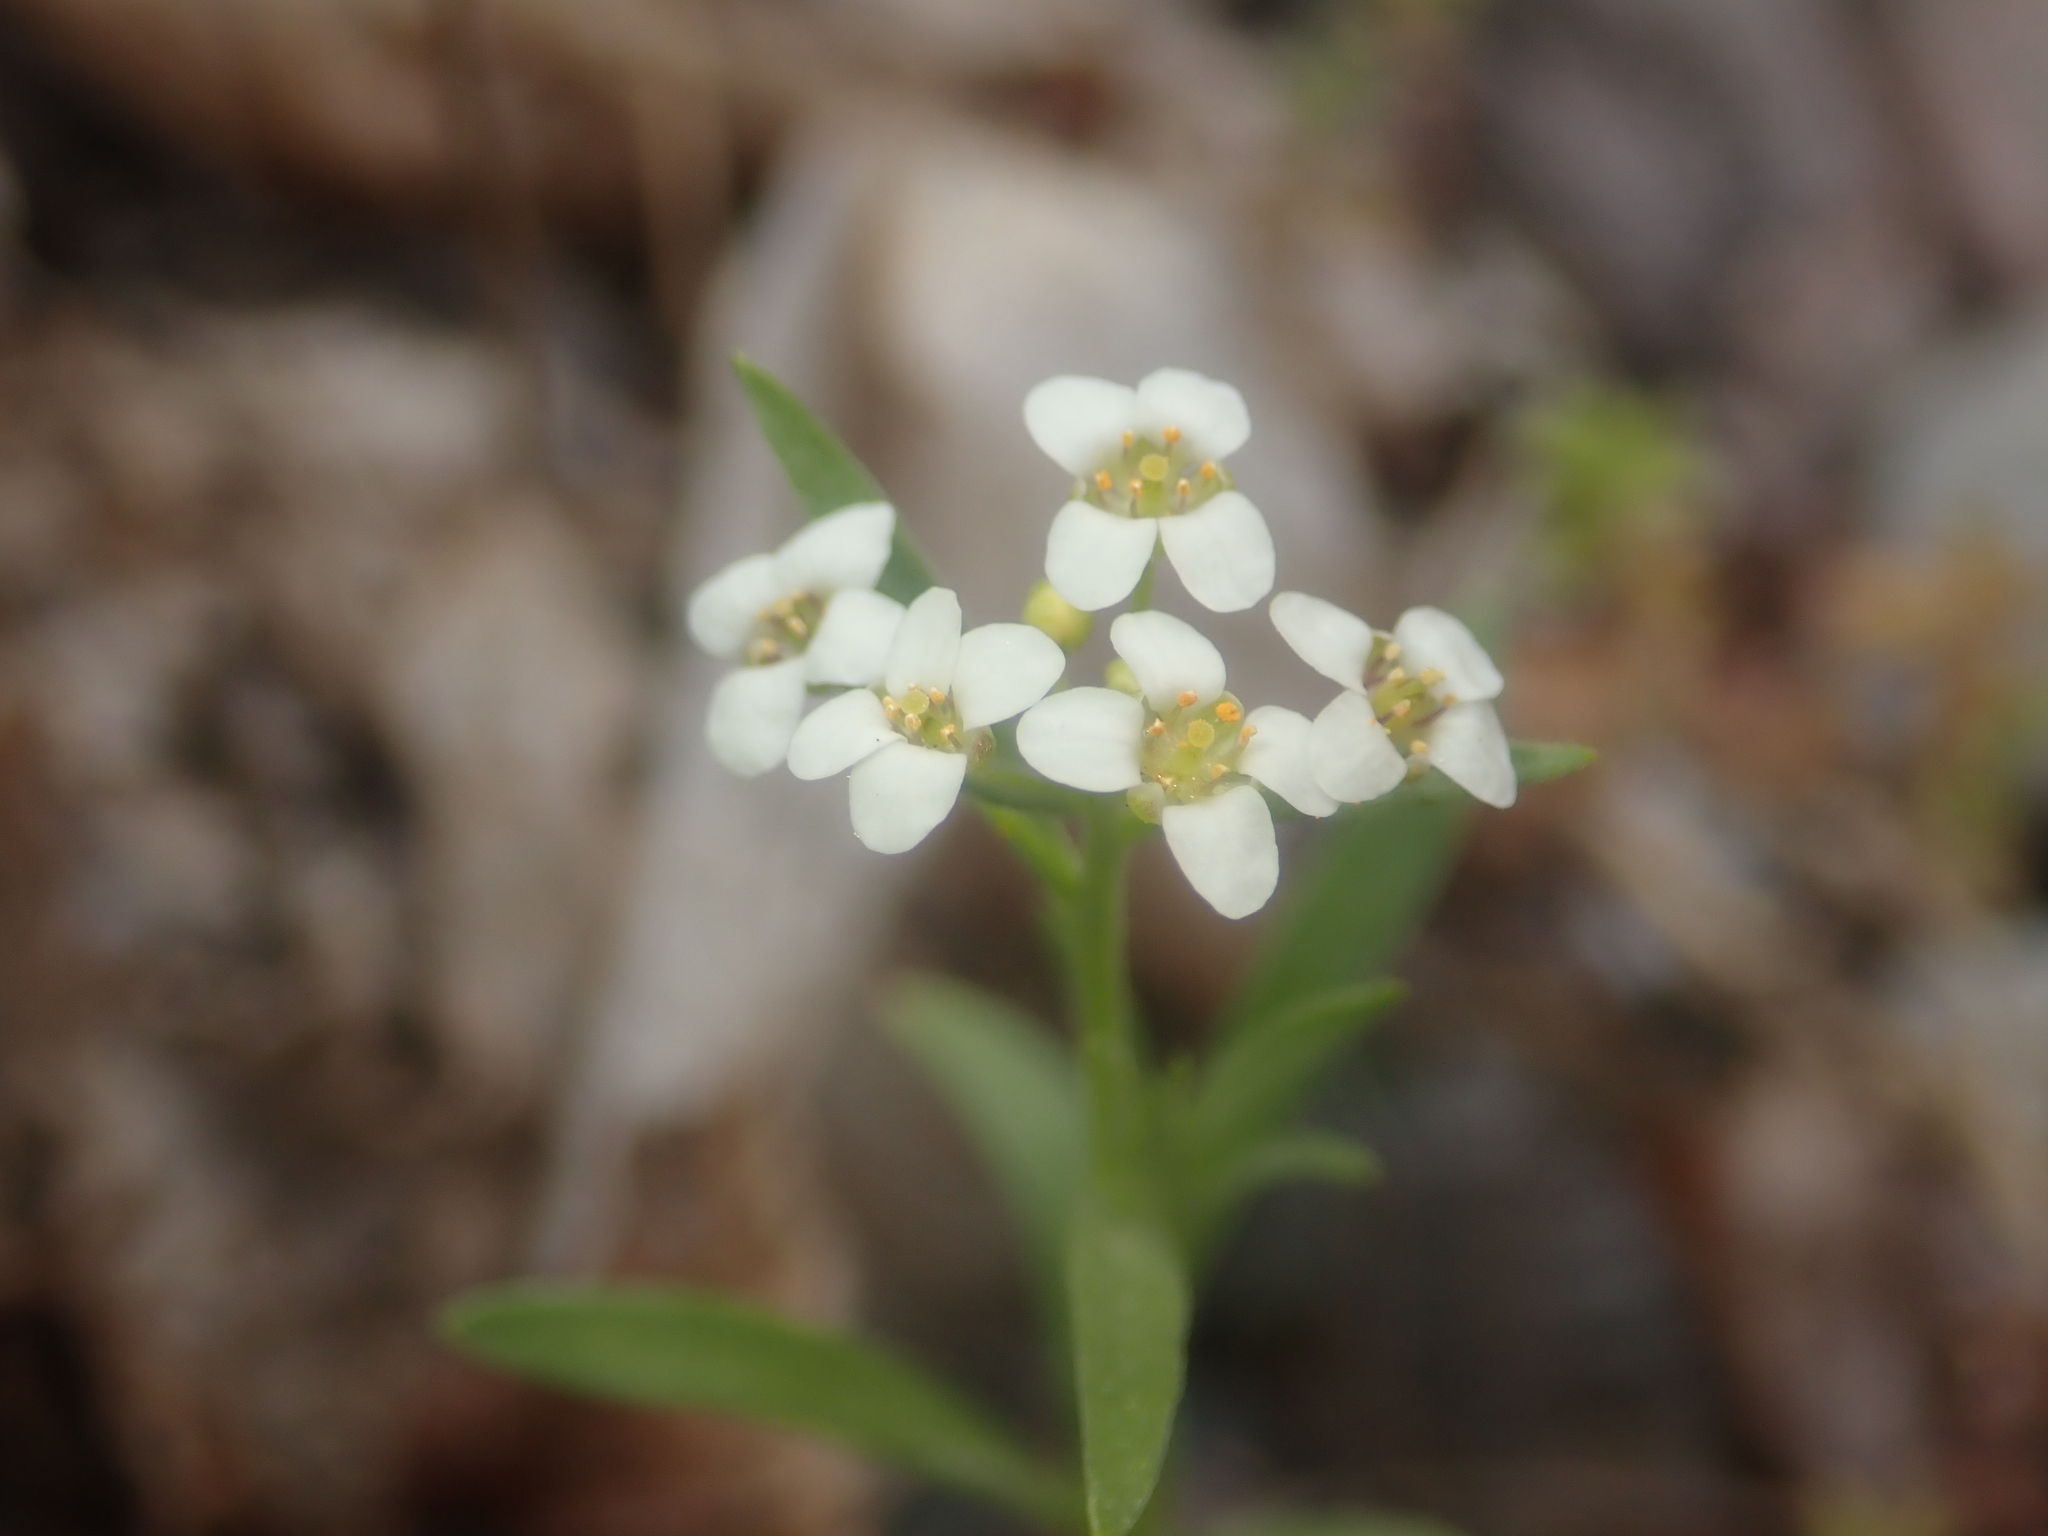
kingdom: Plantae
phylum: Tracheophyta
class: Magnoliopsida
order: Brassicales
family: Brassicaceae
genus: Lobularia
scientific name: Lobularia maritima
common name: Sweet alison
